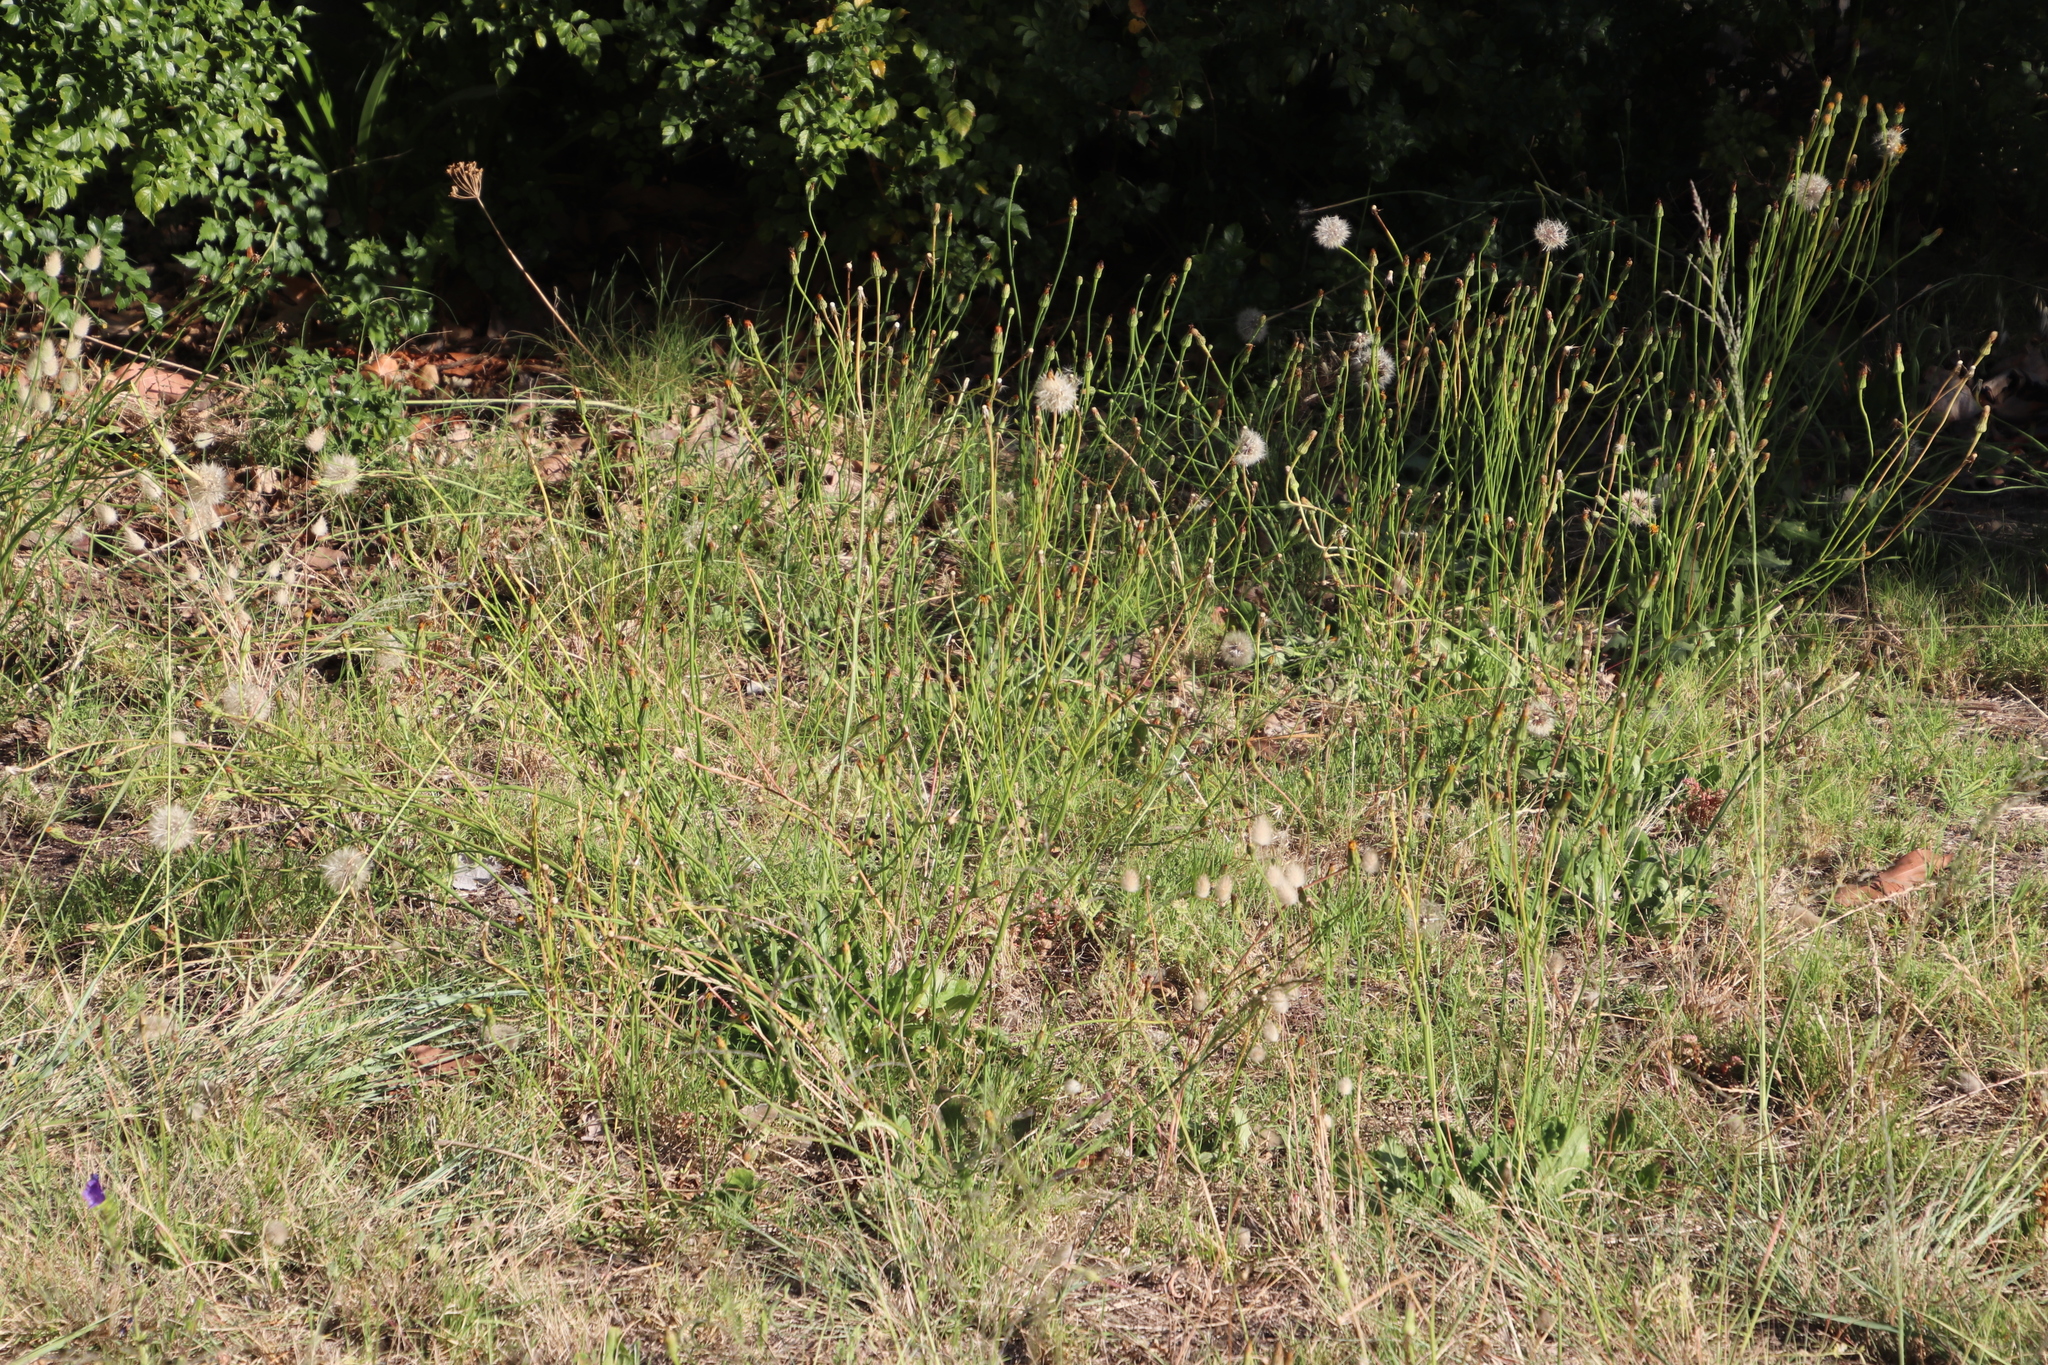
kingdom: Plantae
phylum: Tracheophyta
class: Magnoliopsida
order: Asterales
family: Asteraceae
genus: Hypochaeris
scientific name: Hypochaeris radicata
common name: Flatweed
